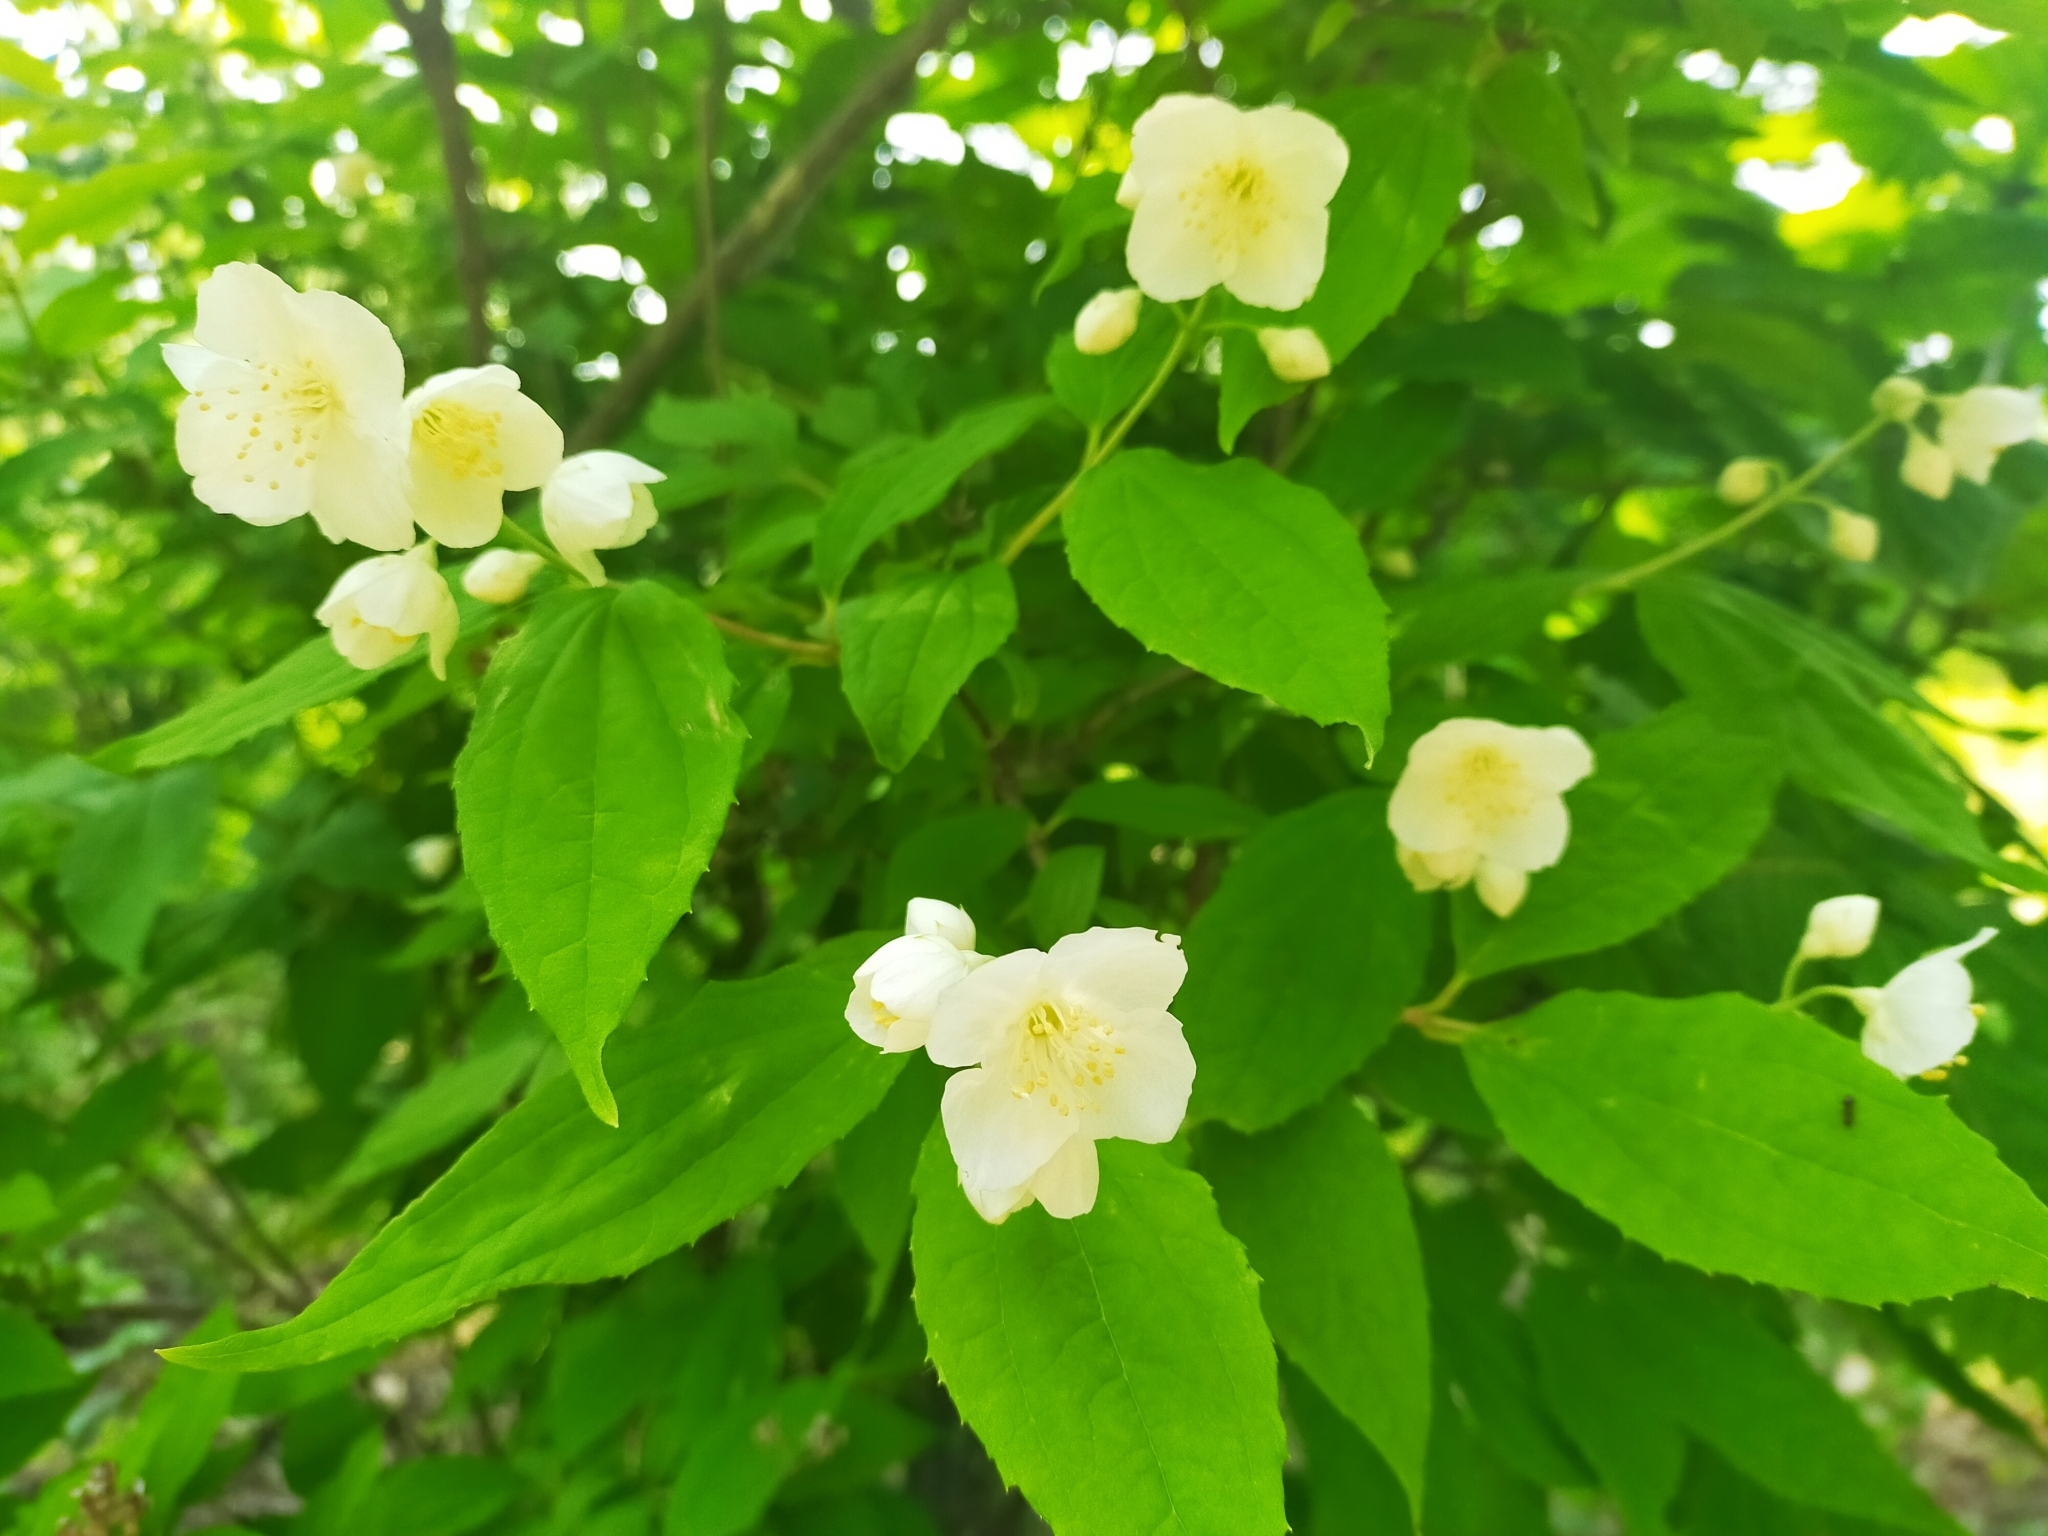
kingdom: Plantae
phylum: Tracheophyta
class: Magnoliopsida
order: Cornales
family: Hydrangeaceae
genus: Philadelphus
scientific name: Philadelphus tenuifolius
